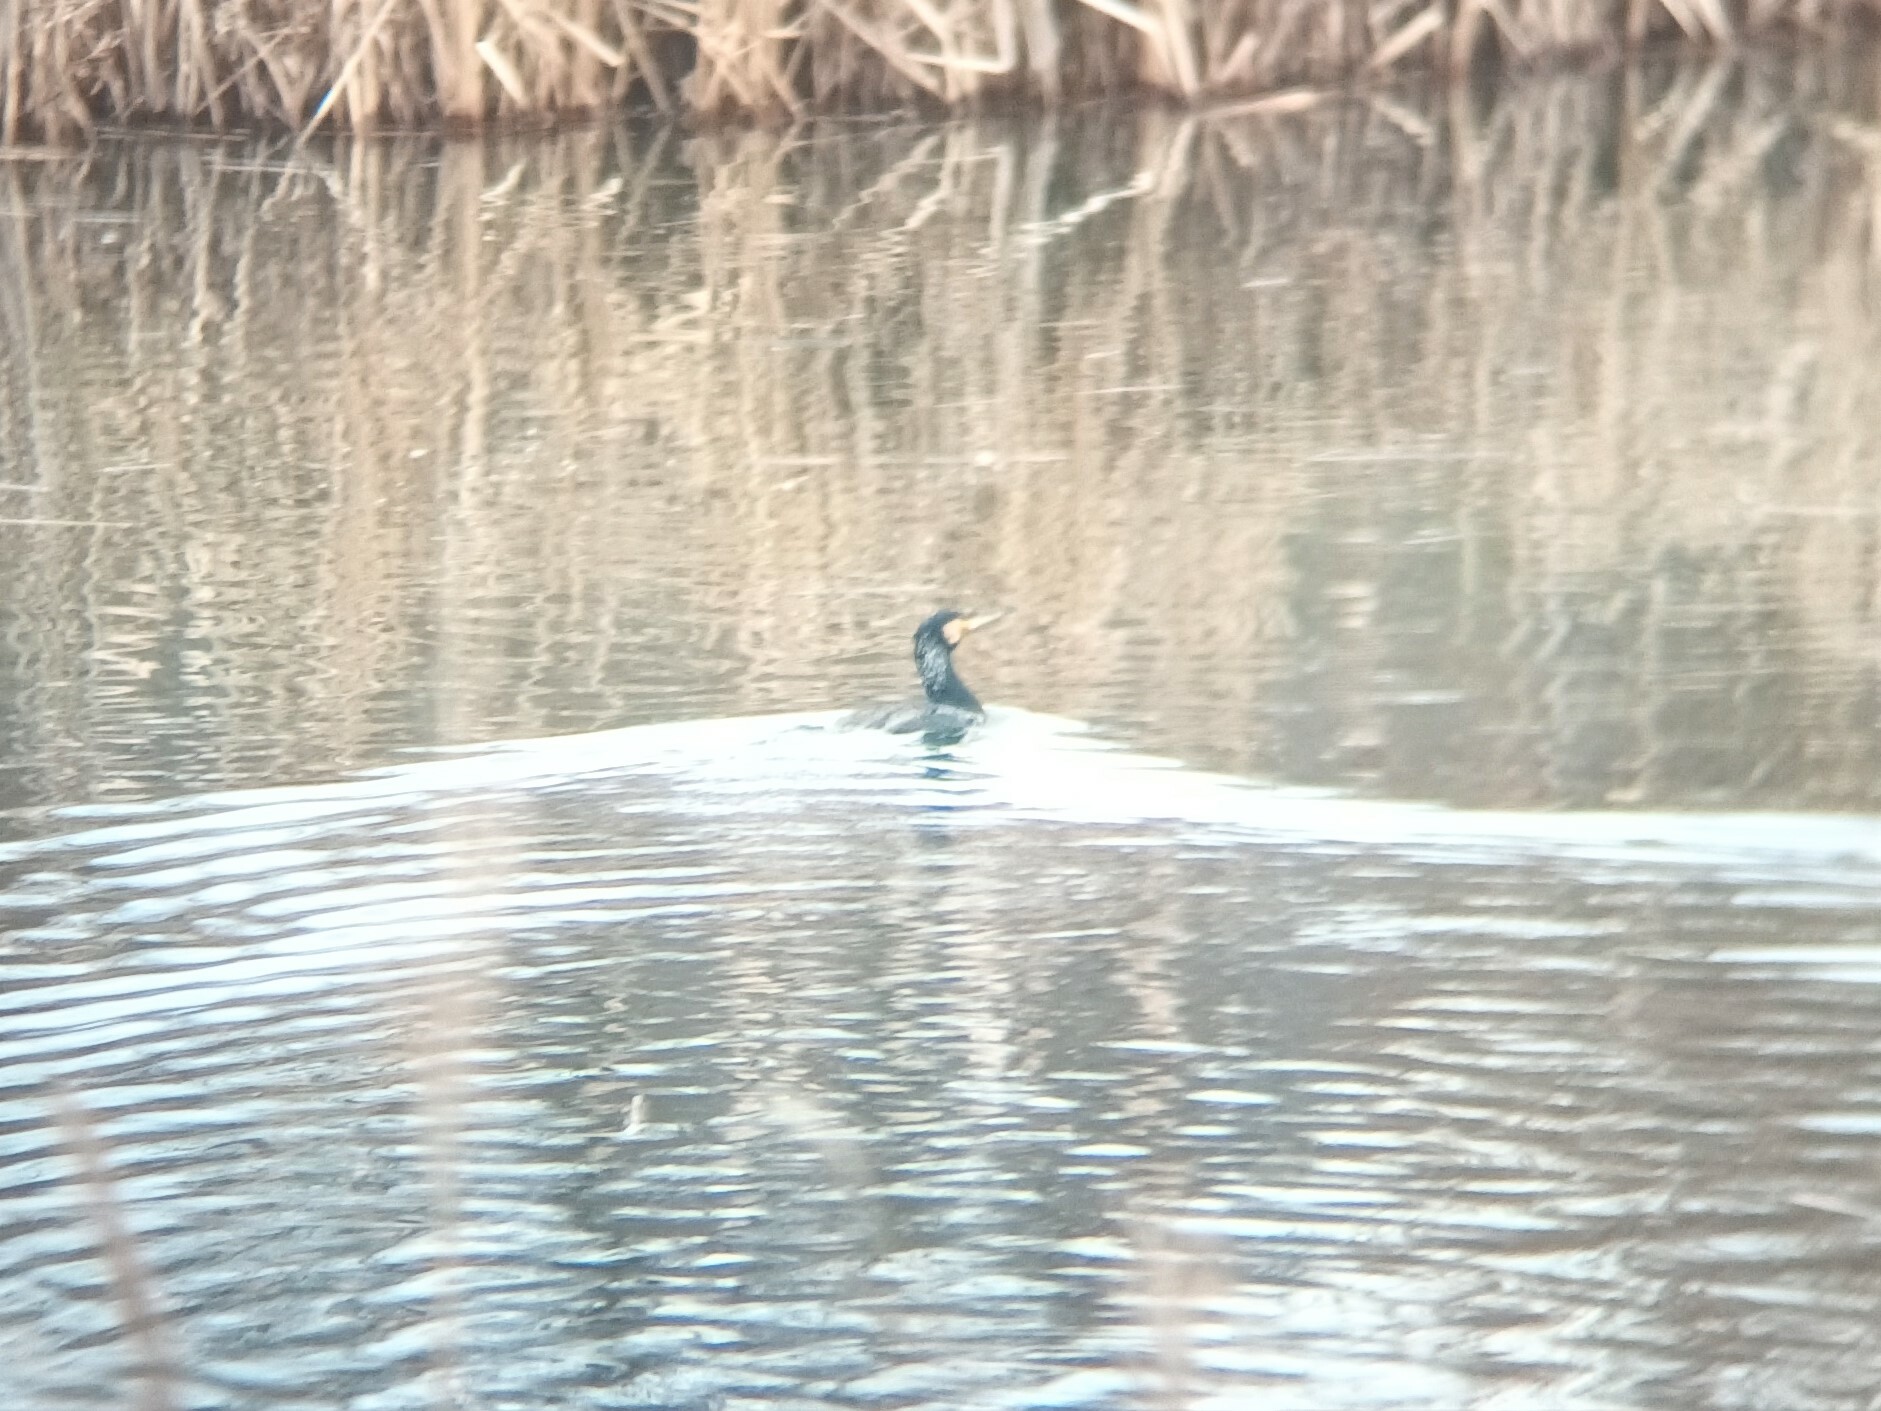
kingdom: Animalia
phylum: Chordata
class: Aves
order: Suliformes
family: Phalacrocoracidae
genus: Phalacrocorax
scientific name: Phalacrocorax carbo
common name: Great cormorant
